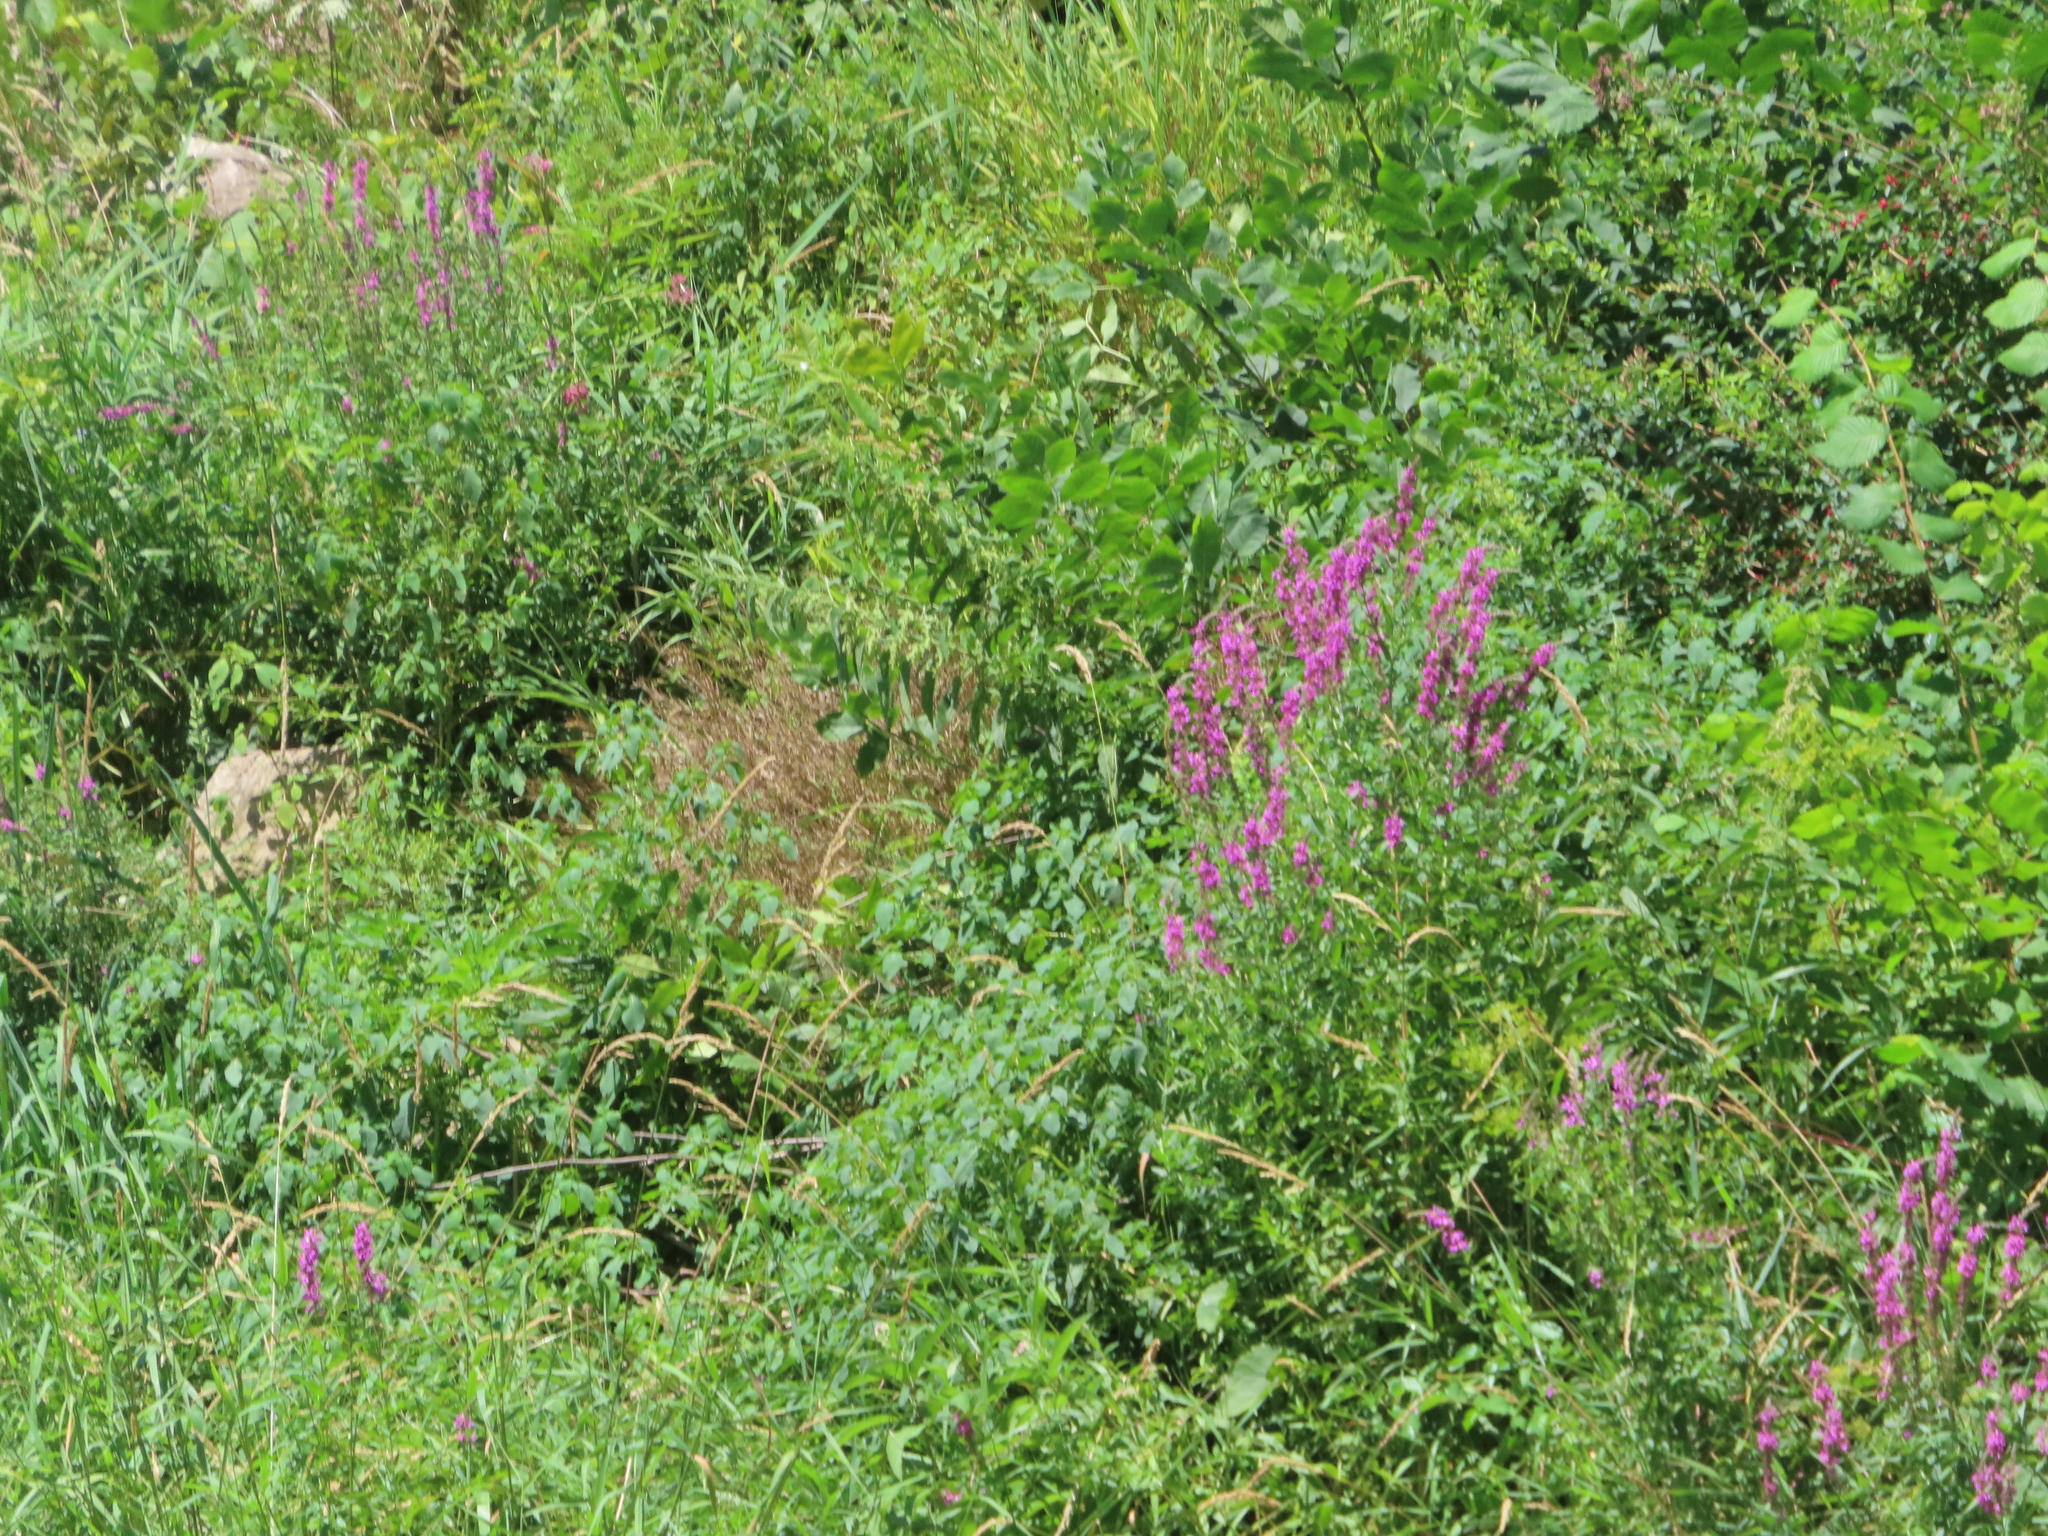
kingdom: Plantae
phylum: Tracheophyta
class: Magnoliopsida
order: Myrtales
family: Lythraceae
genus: Lythrum
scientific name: Lythrum salicaria
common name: Purple loosestrife
